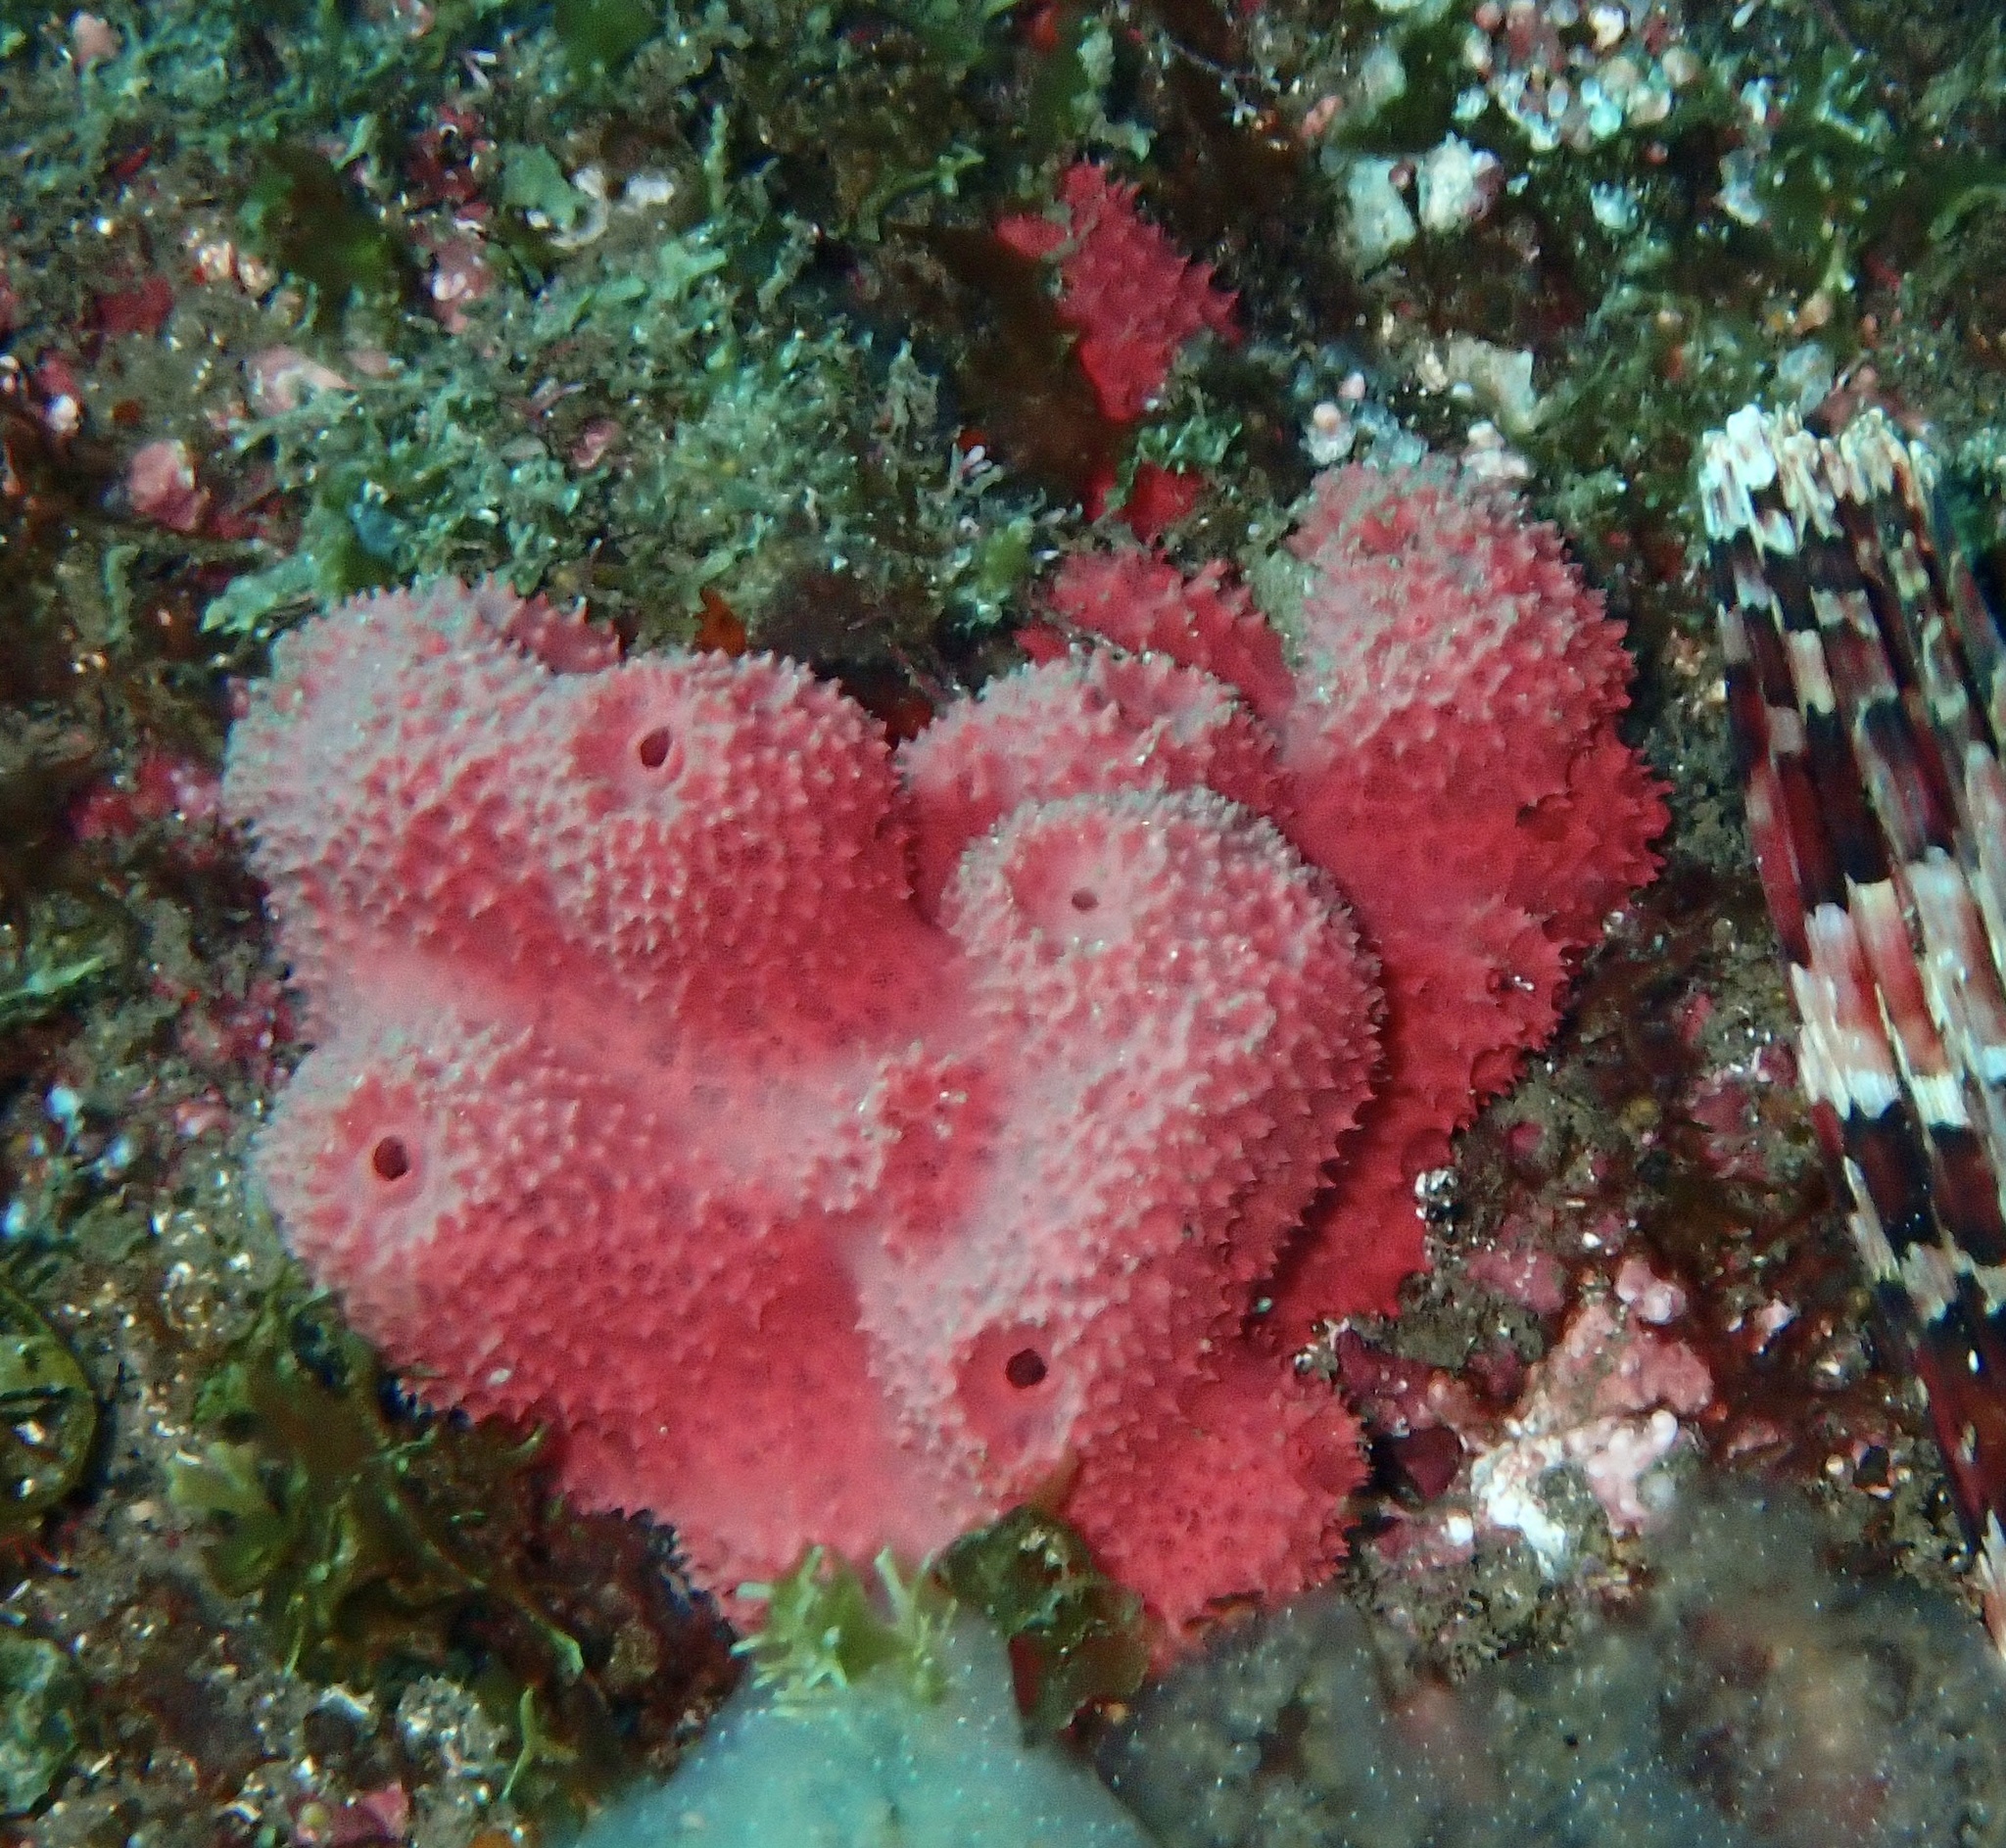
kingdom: Animalia
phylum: Porifera
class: Demospongiae
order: Dendroceratida
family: Dictyodendrillidae
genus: Igernella
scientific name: Igernella notabilis
